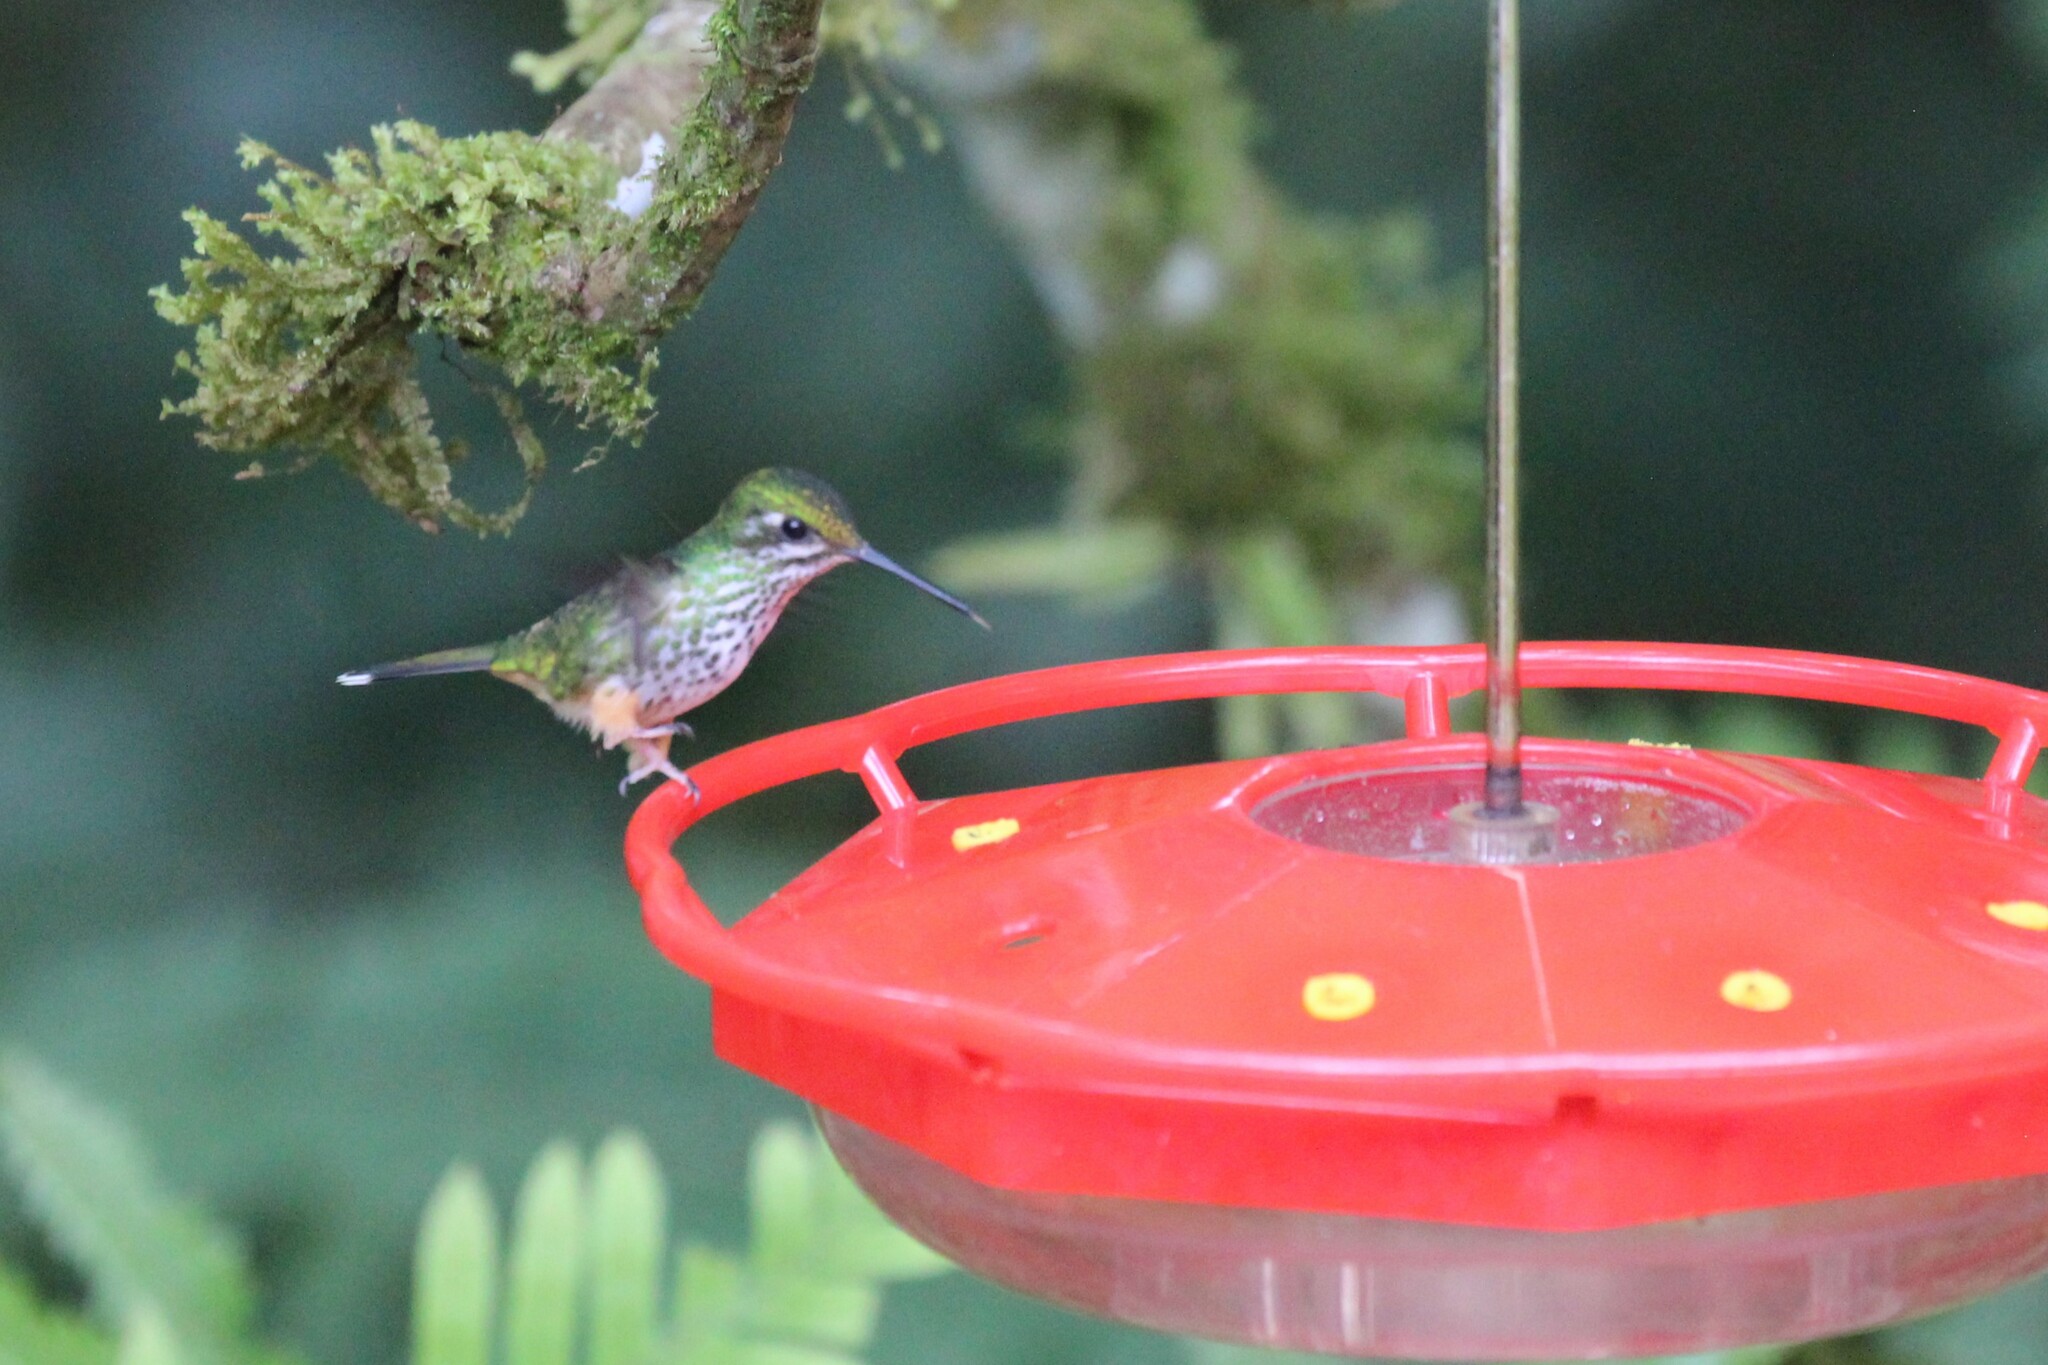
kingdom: Animalia
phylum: Chordata
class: Aves
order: Apodiformes
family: Trochilidae
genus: Ocreatus
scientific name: Ocreatus peruanus
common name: Peruvian racket-tail
